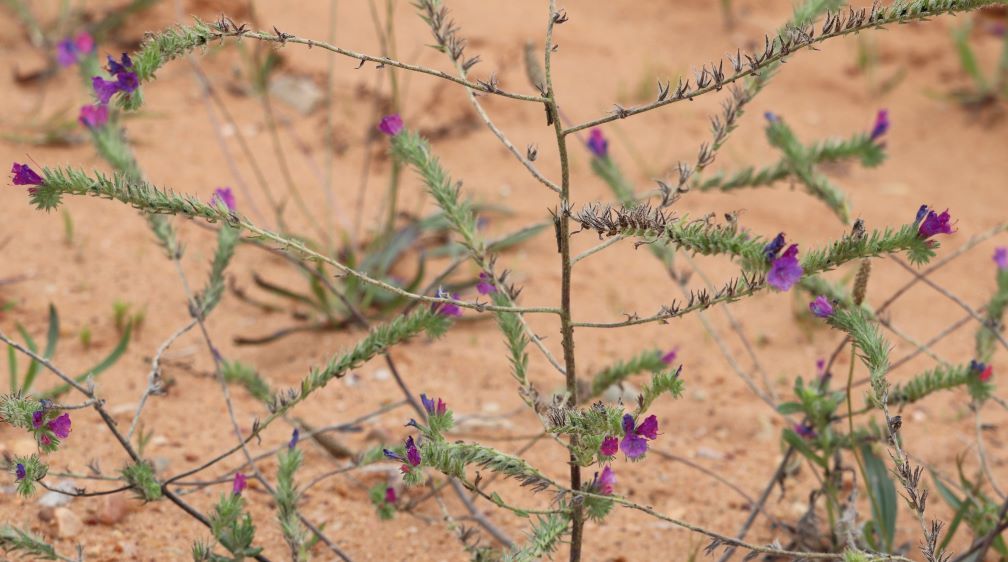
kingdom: Plantae
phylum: Tracheophyta
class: Magnoliopsida
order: Boraginales
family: Boraginaceae
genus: Echium
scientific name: Echium plantagineum
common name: Purple viper's-bugloss
